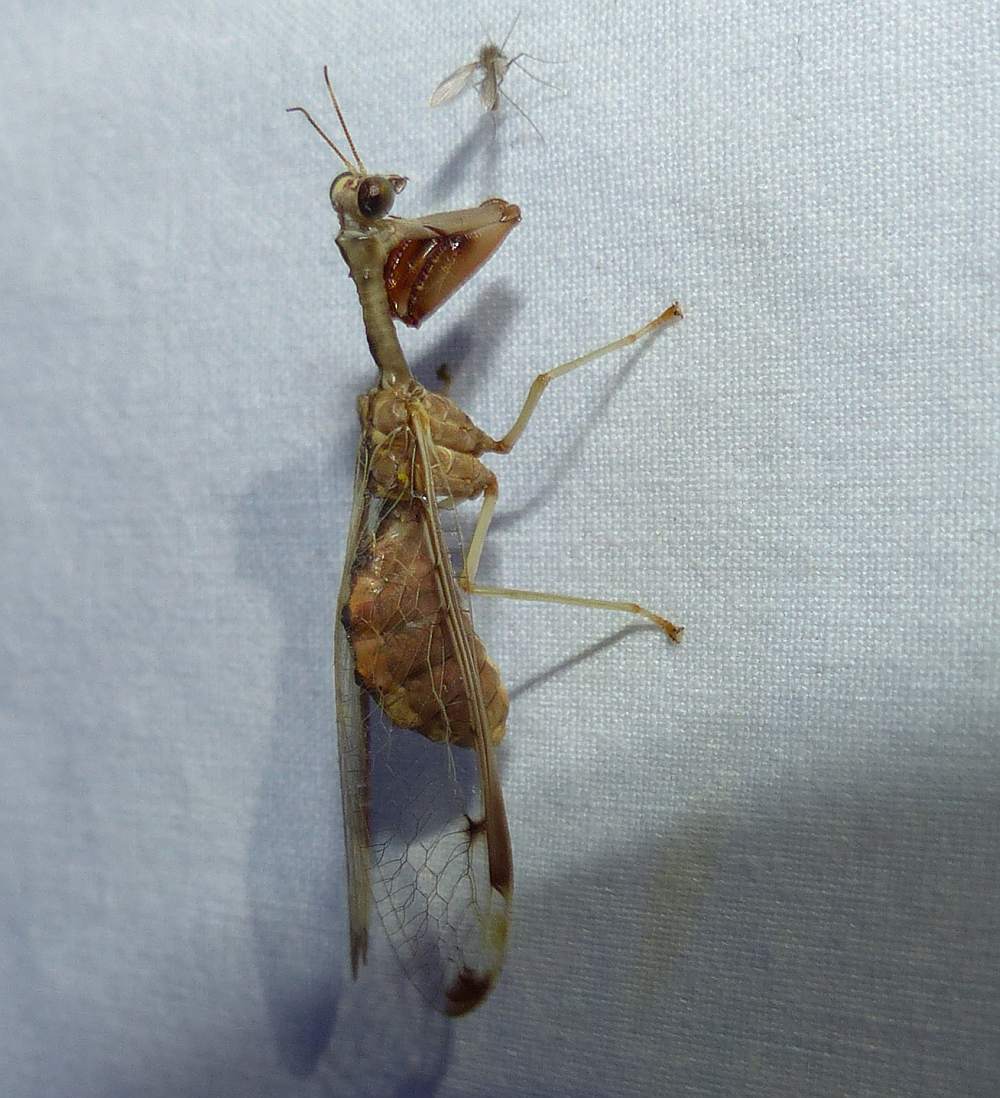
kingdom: Animalia
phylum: Arthropoda
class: Insecta
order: Neuroptera
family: Mantispidae
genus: Dicromantispa
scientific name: Dicromantispa interrupta
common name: Four-spotted mantidfly
